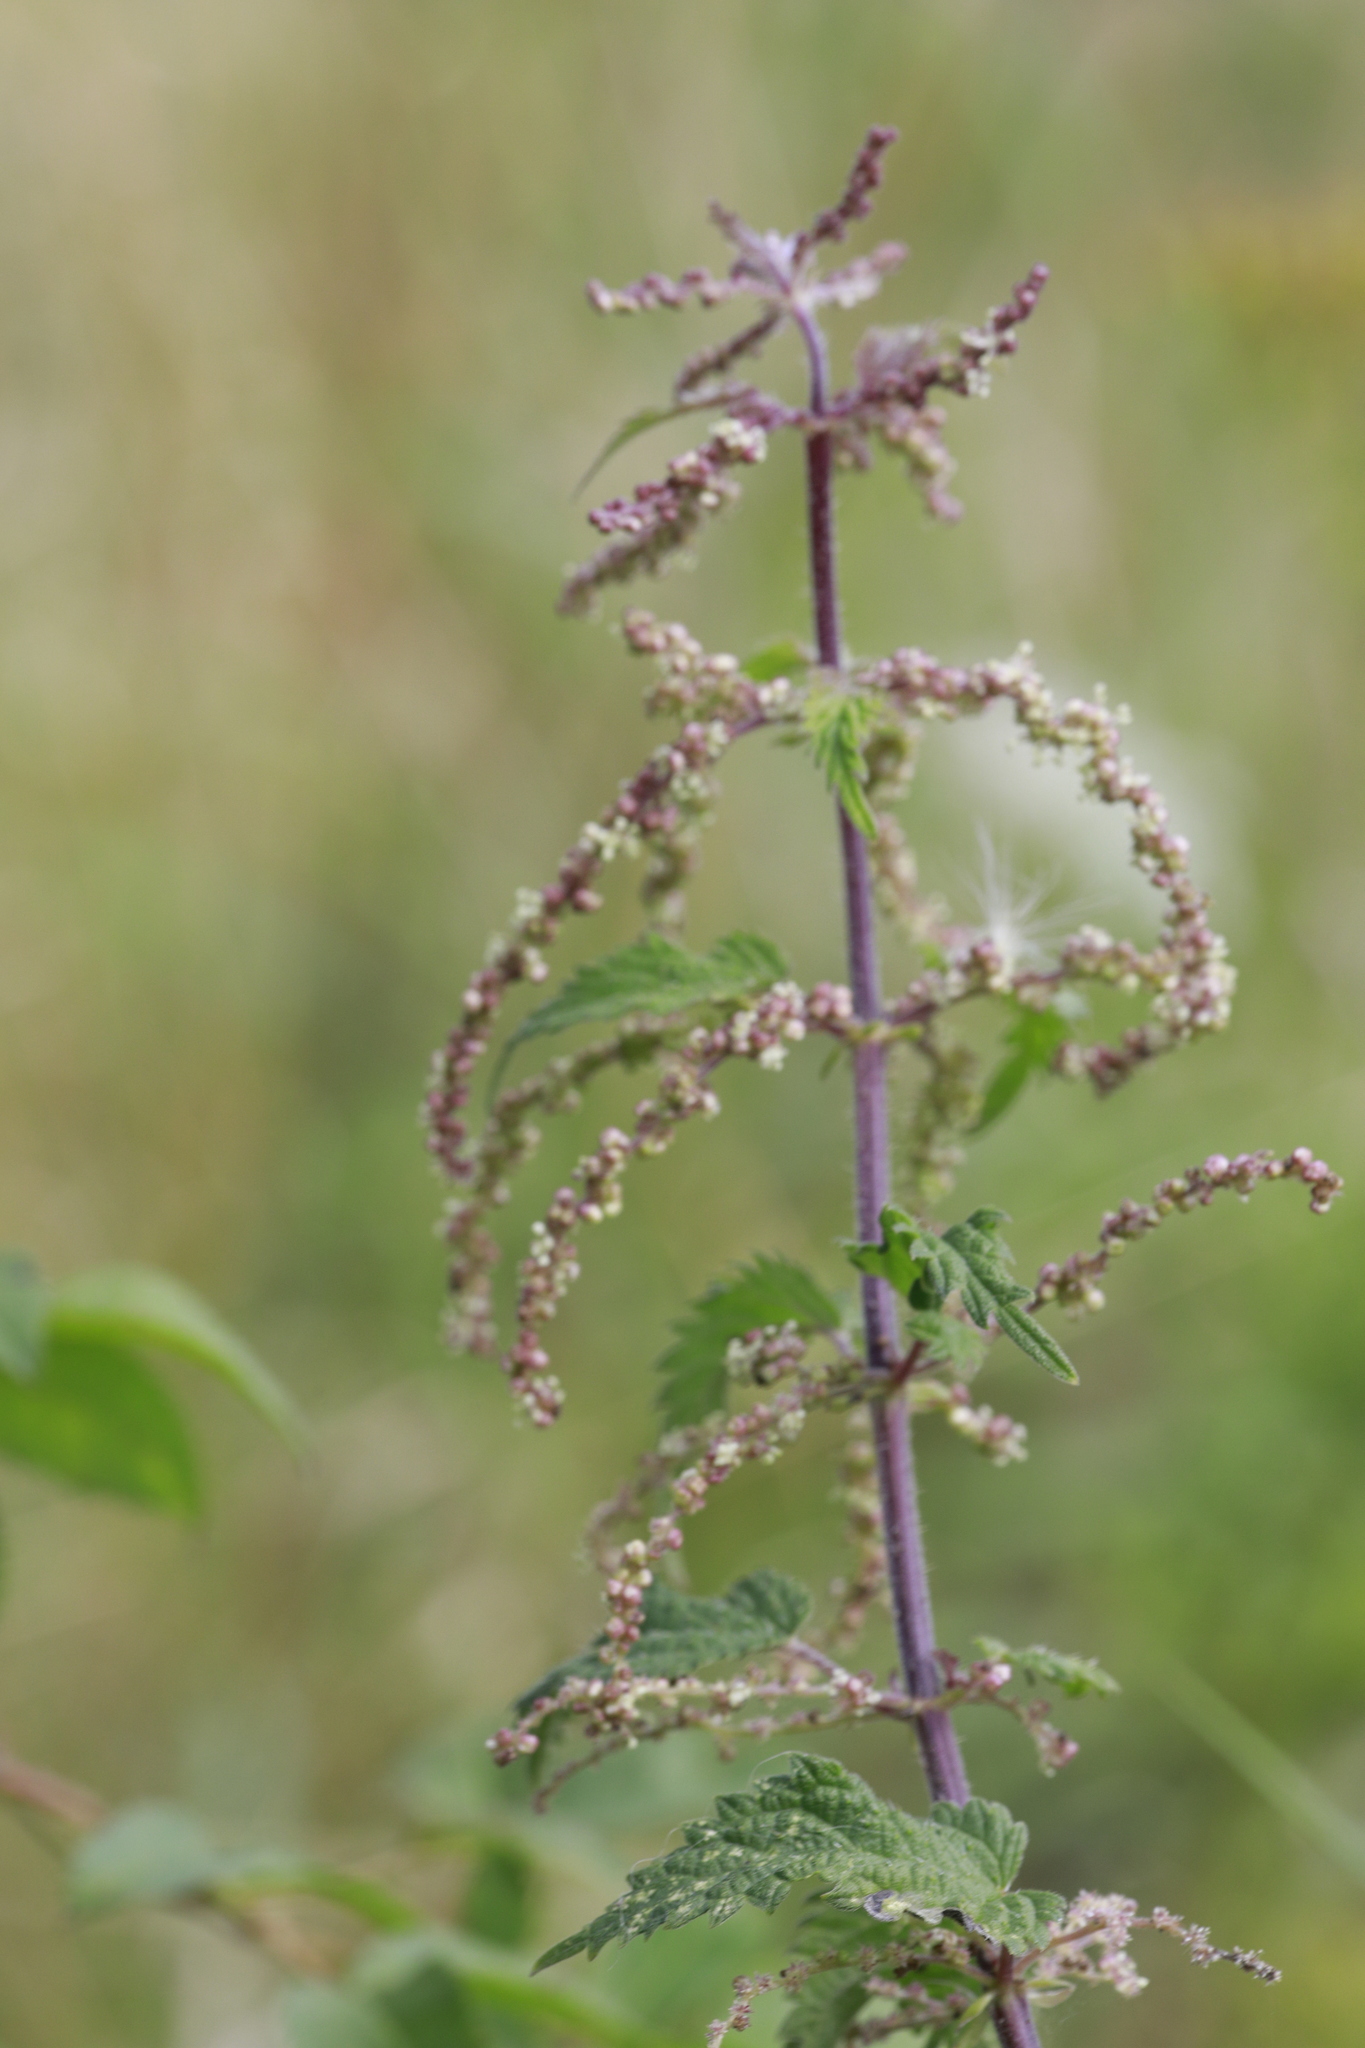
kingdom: Plantae
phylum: Tracheophyta
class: Magnoliopsida
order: Rosales
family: Urticaceae
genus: Urtica
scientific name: Urtica dioica
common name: Common nettle
